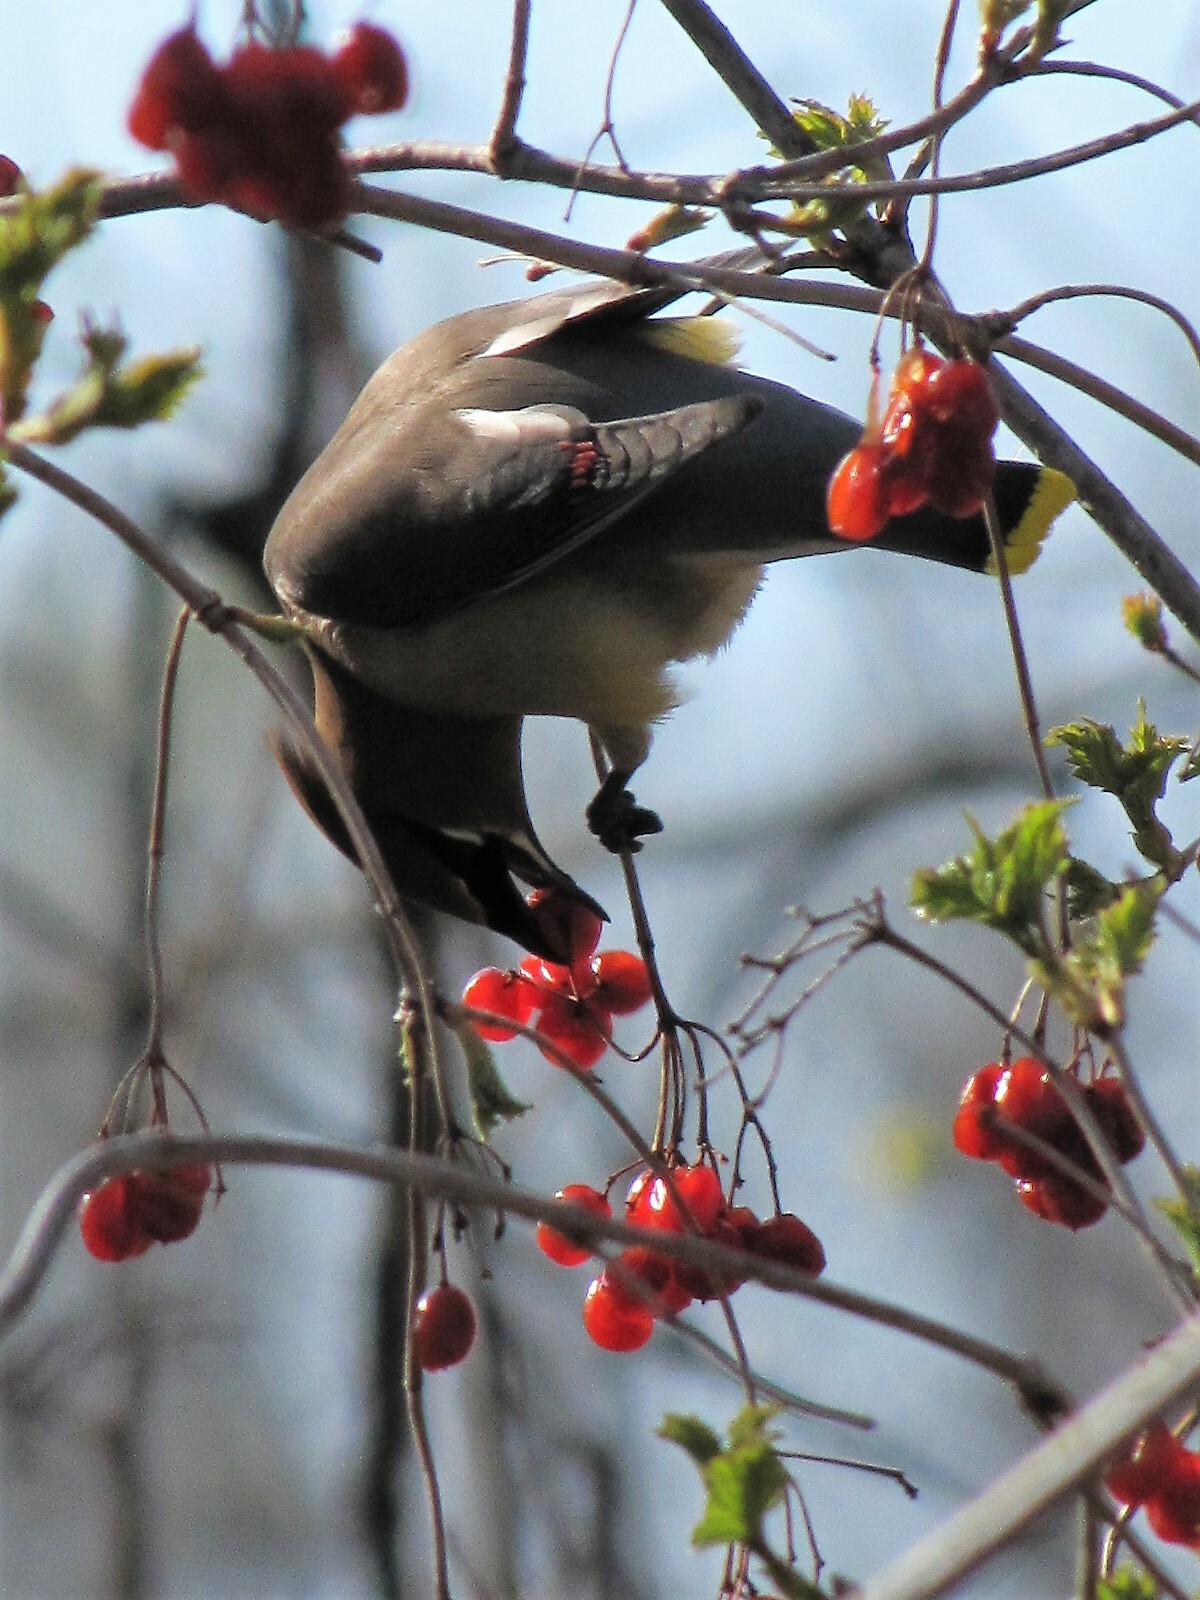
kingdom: Animalia
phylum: Chordata
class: Aves
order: Passeriformes
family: Bombycillidae
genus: Bombycilla
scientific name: Bombycilla cedrorum
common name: Cedar waxwing
